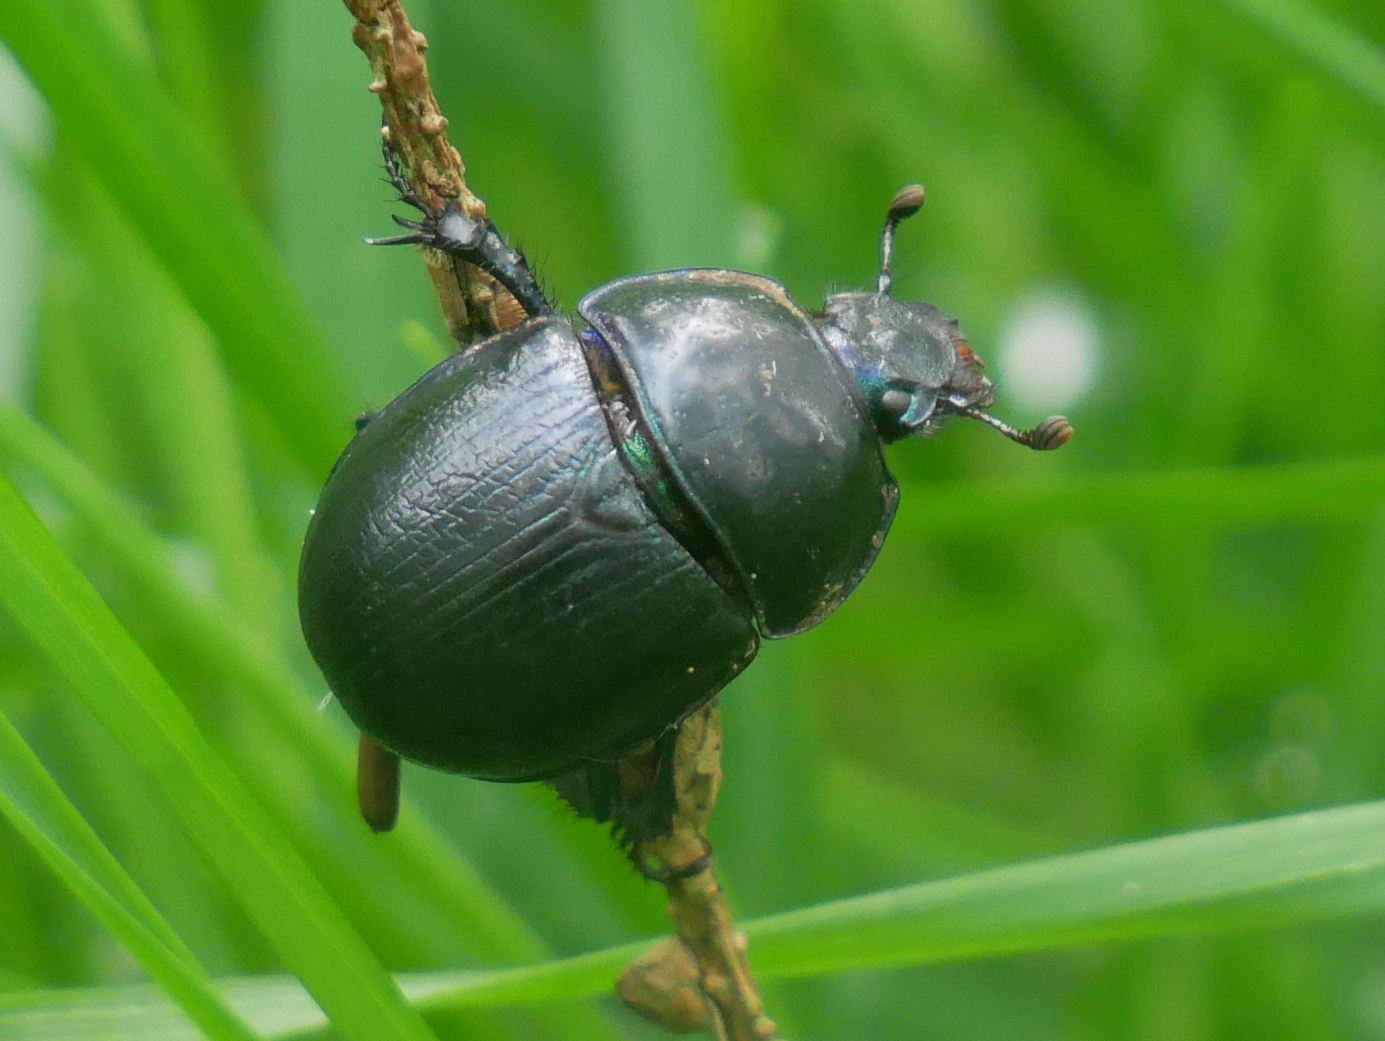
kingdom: Animalia
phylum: Arthropoda
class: Insecta
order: Coleoptera
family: Geotrupidae
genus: Anoplotrupes
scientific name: Anoplotrupes stercorosus
